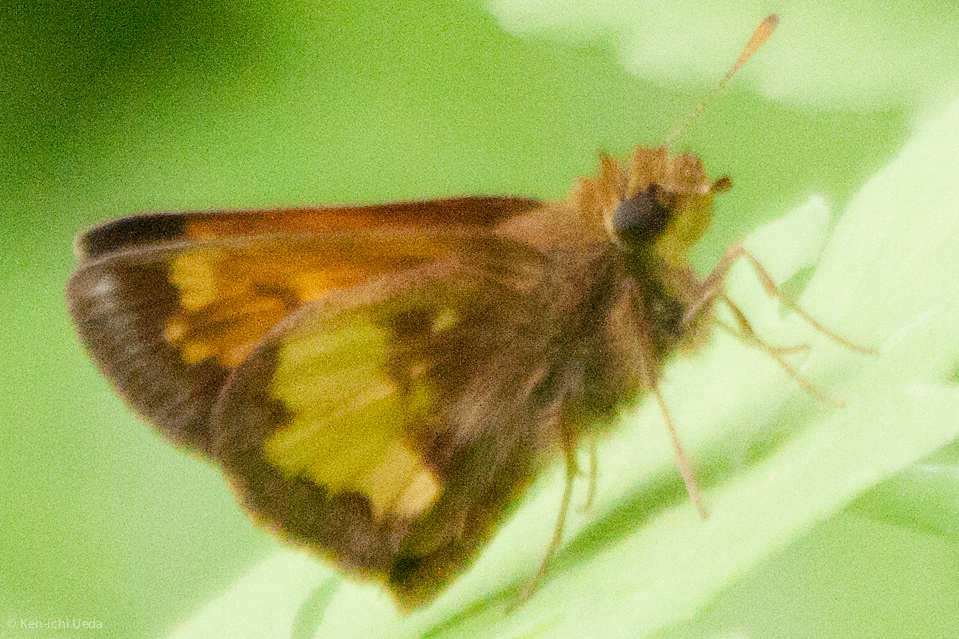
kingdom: Animalia
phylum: Arthropoda
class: Insecta
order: Lepidoptera
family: Hesperiidae
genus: Lon
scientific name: Lon hobomok
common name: Hobomok skipper
